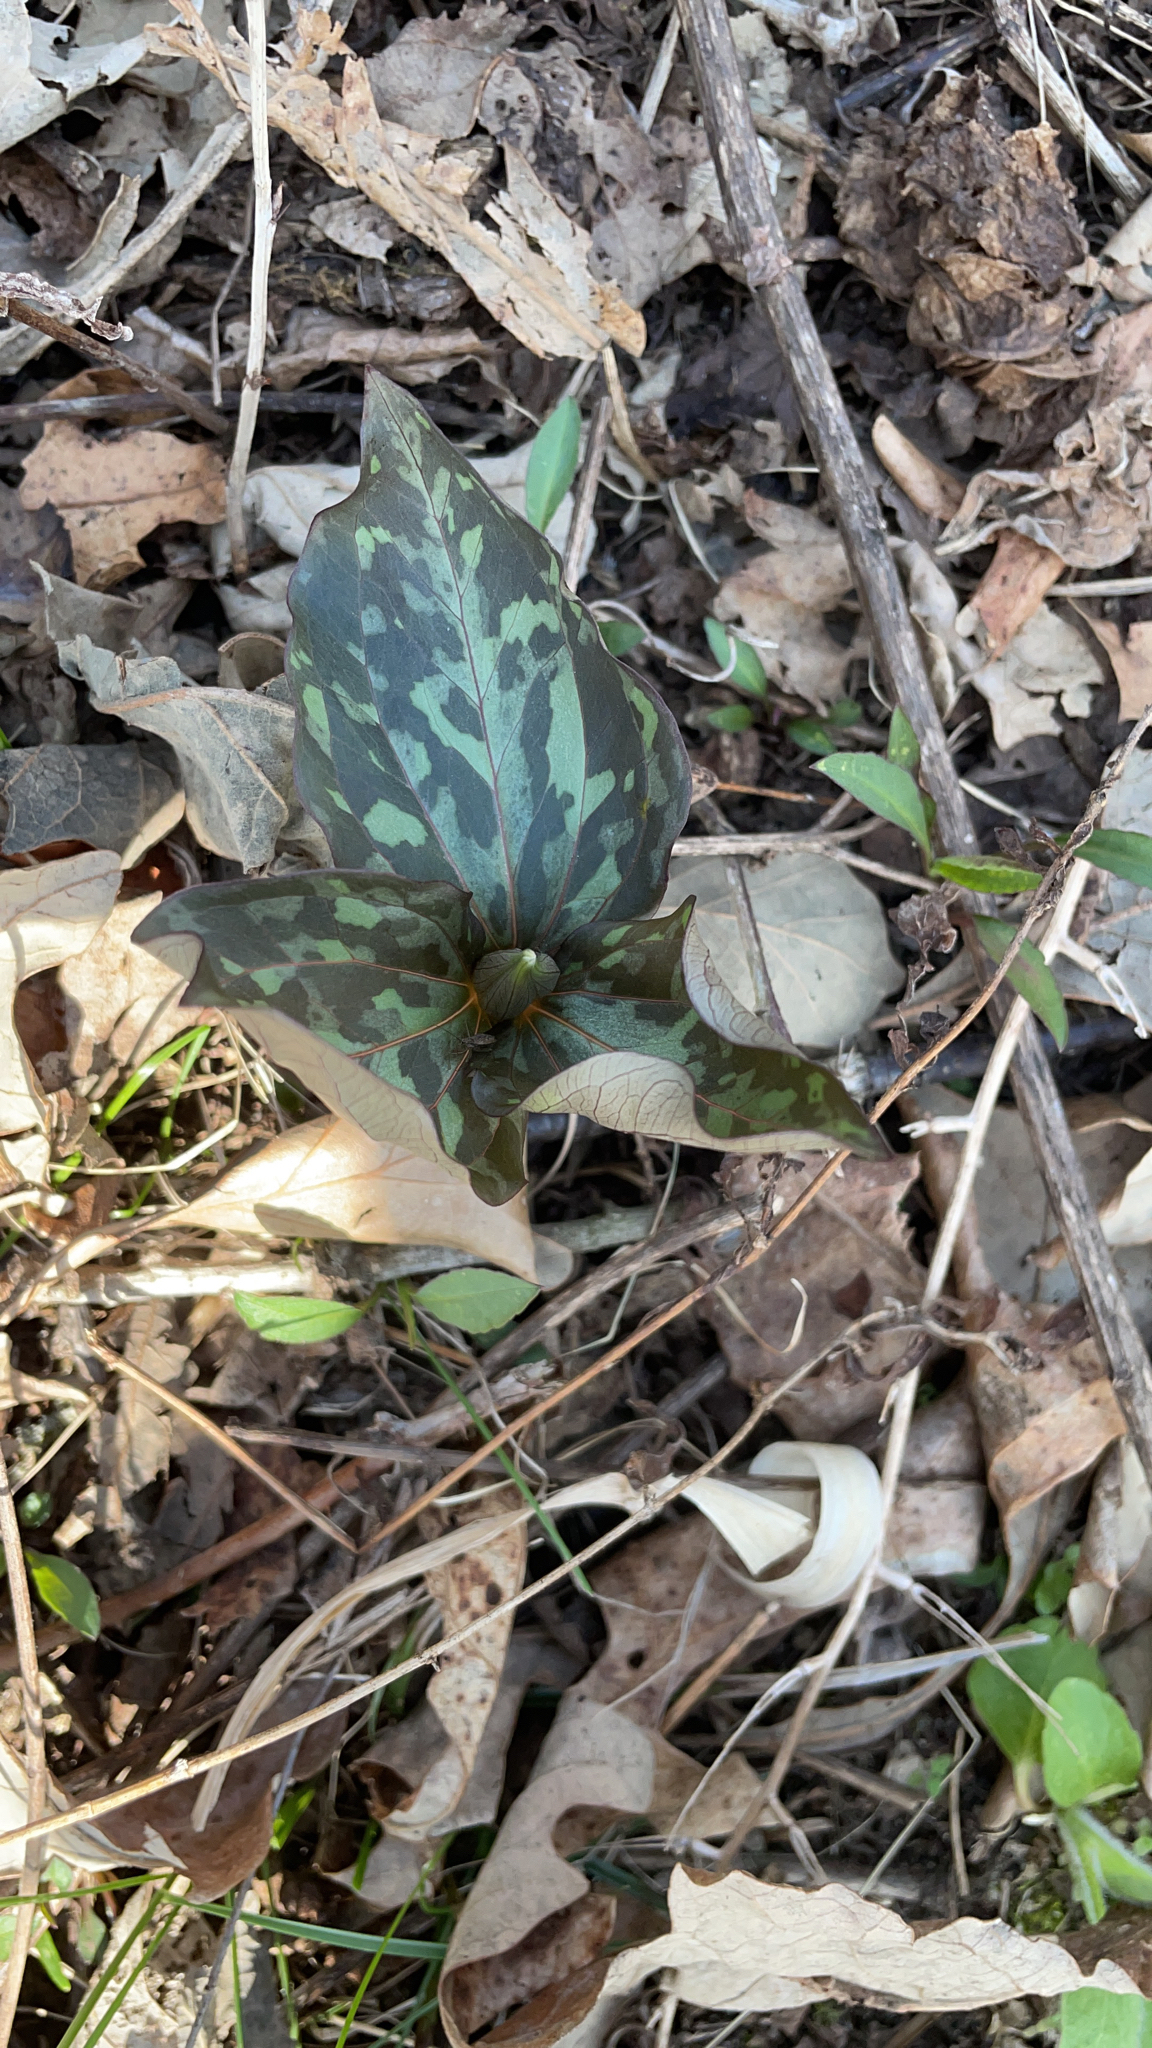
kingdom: Plantae
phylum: Tracheophyta
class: Liliopsida
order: Liliales
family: Melanthiaceae
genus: Trillium
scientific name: Trillium recurvatum
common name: Bloody butcher
